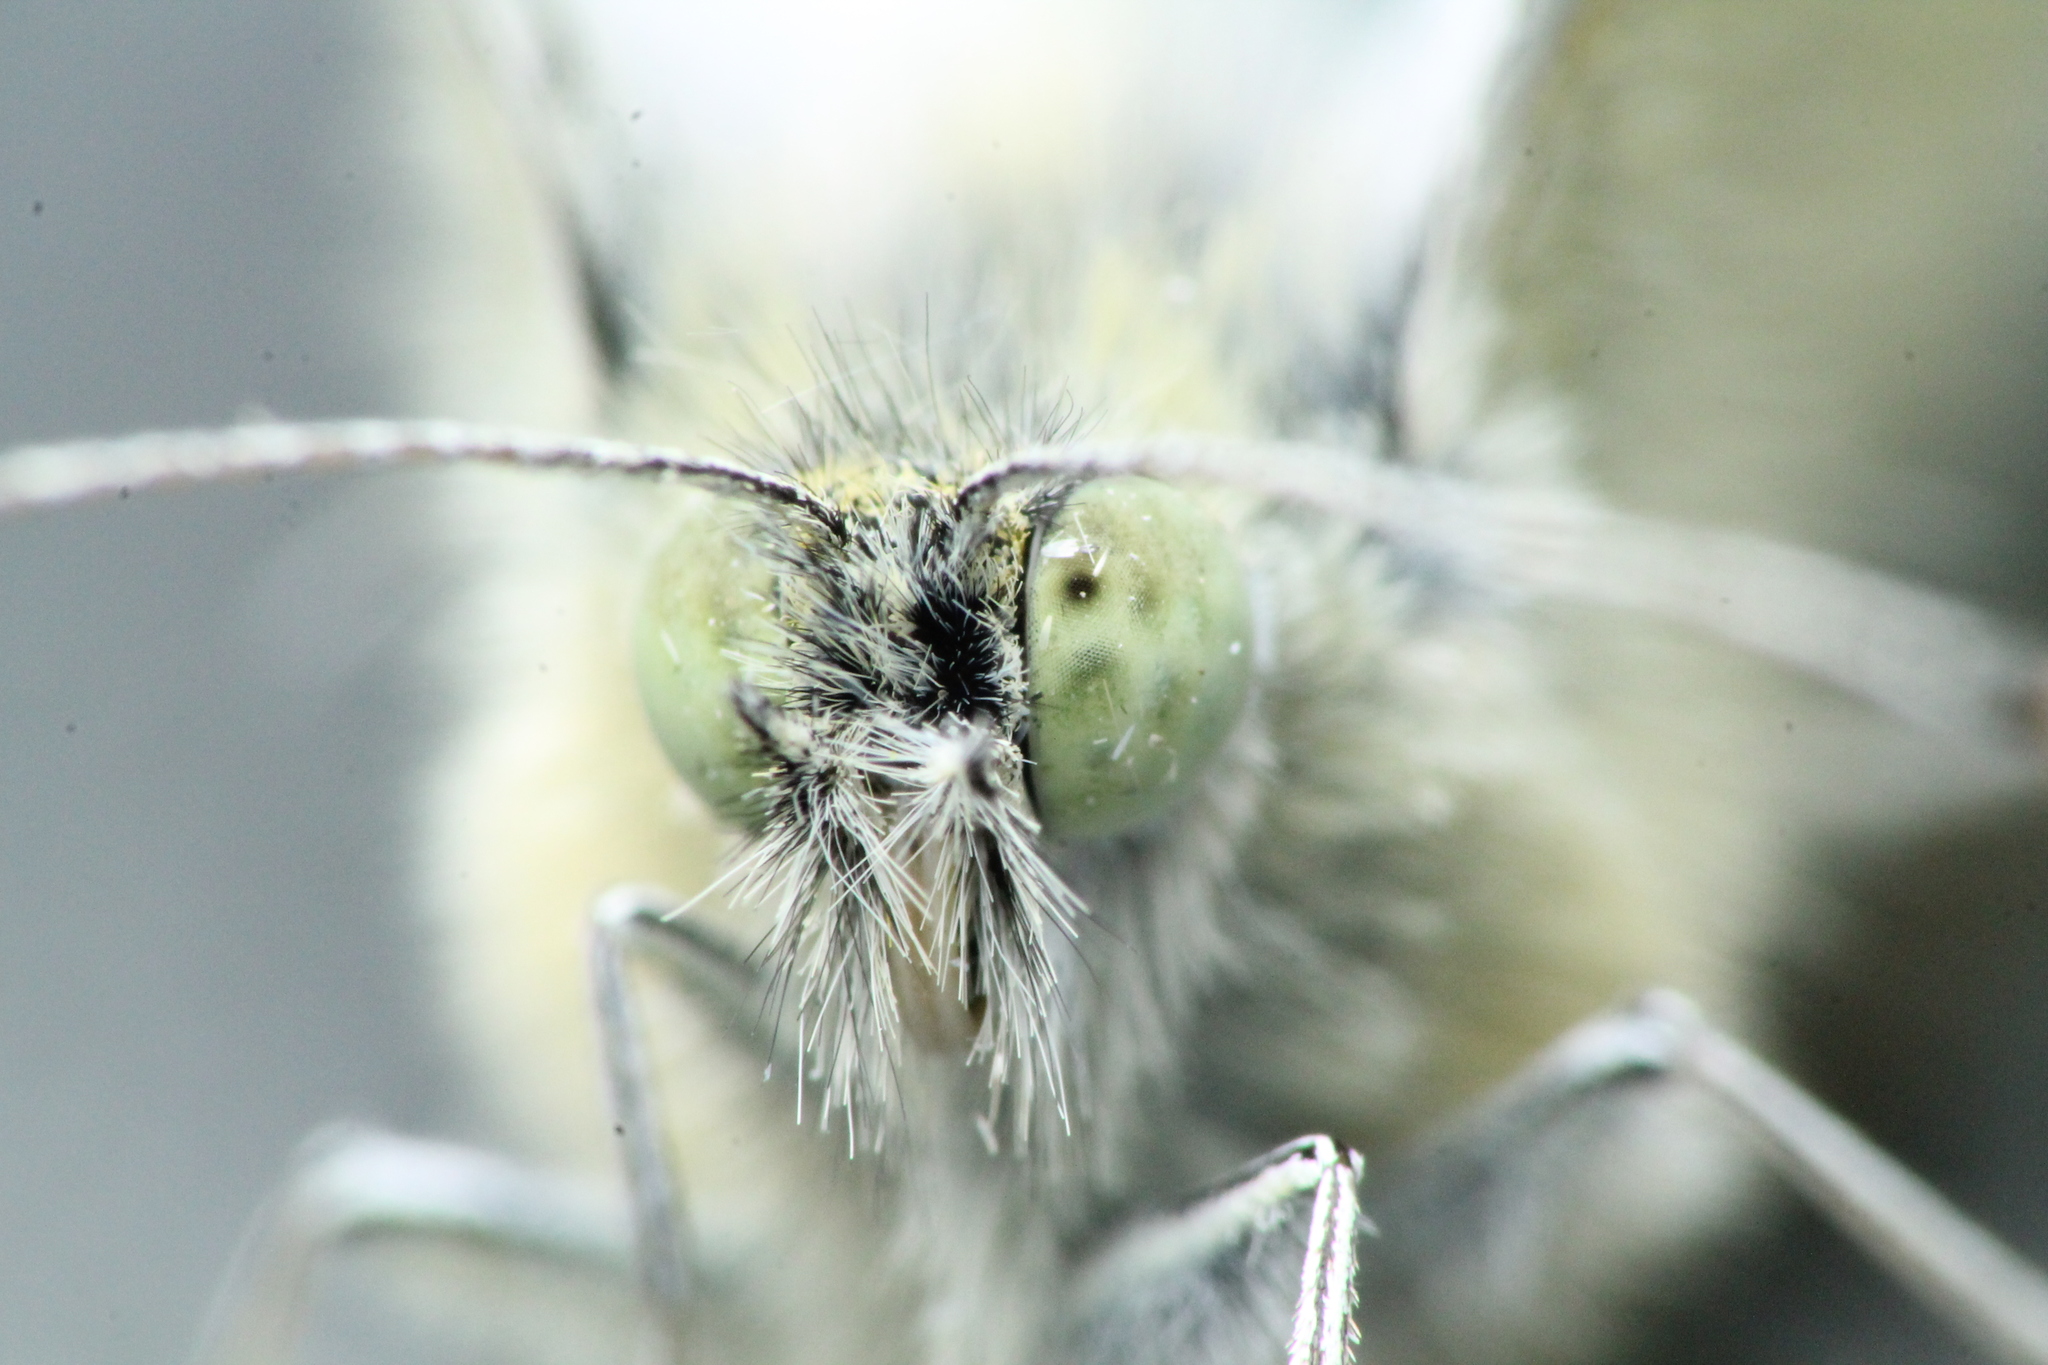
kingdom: Animalia
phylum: Arthropoda
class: Insecta
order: Lepidoptera
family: Pieridae
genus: Pieris
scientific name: Pieris rapae
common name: Small white
